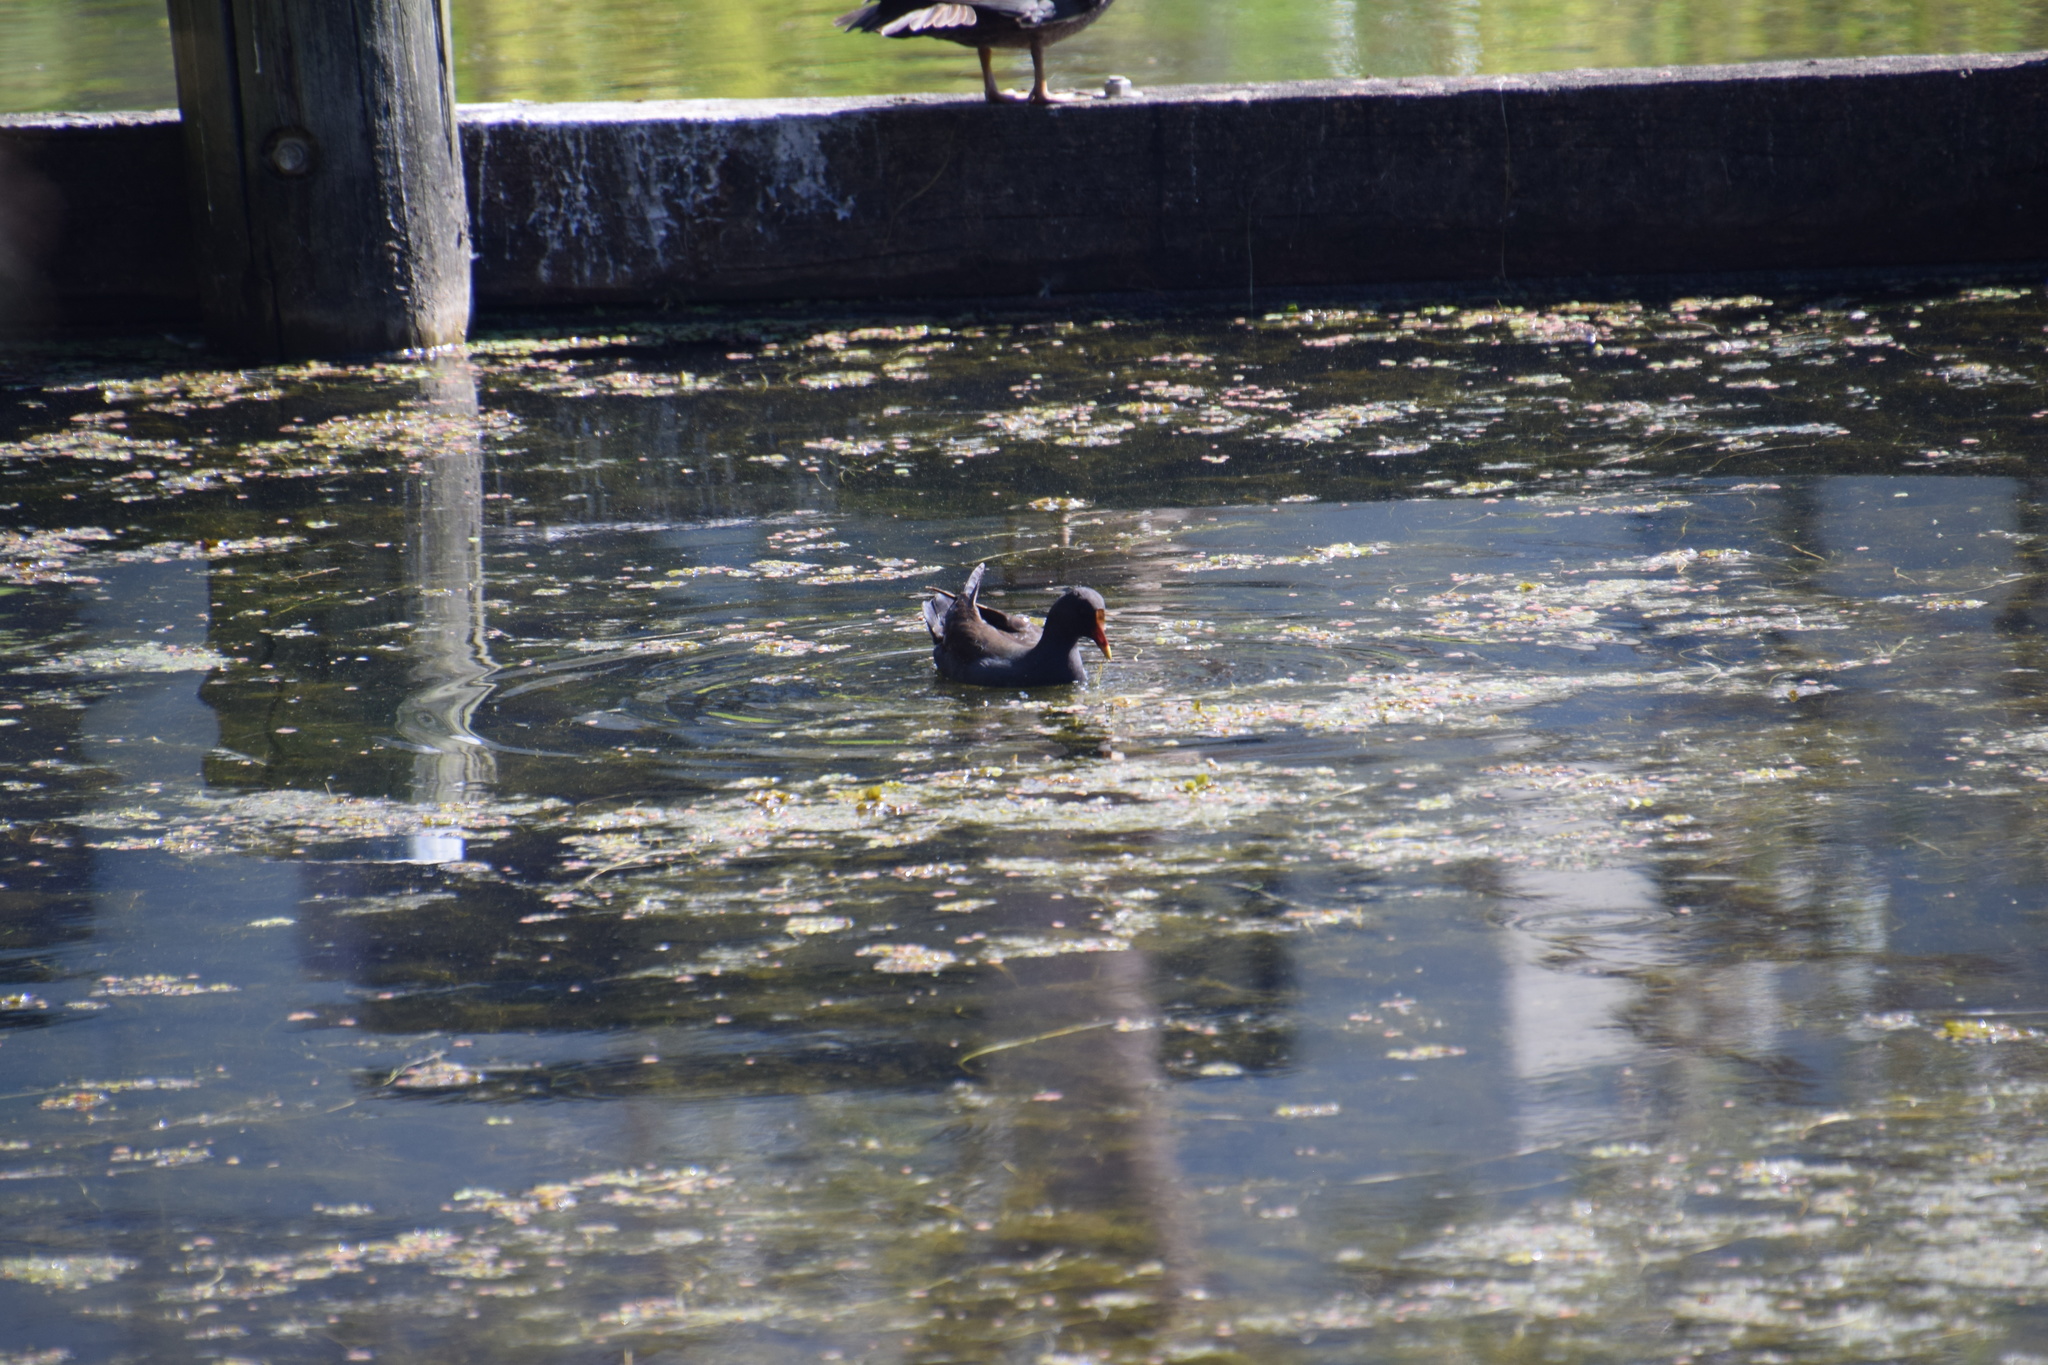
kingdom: Animalia
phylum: Chordata
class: Aves
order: Gruiformes
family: Rallidae
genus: Gallinula
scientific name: Gallinula tenebrosa
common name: Dusky moorhen
